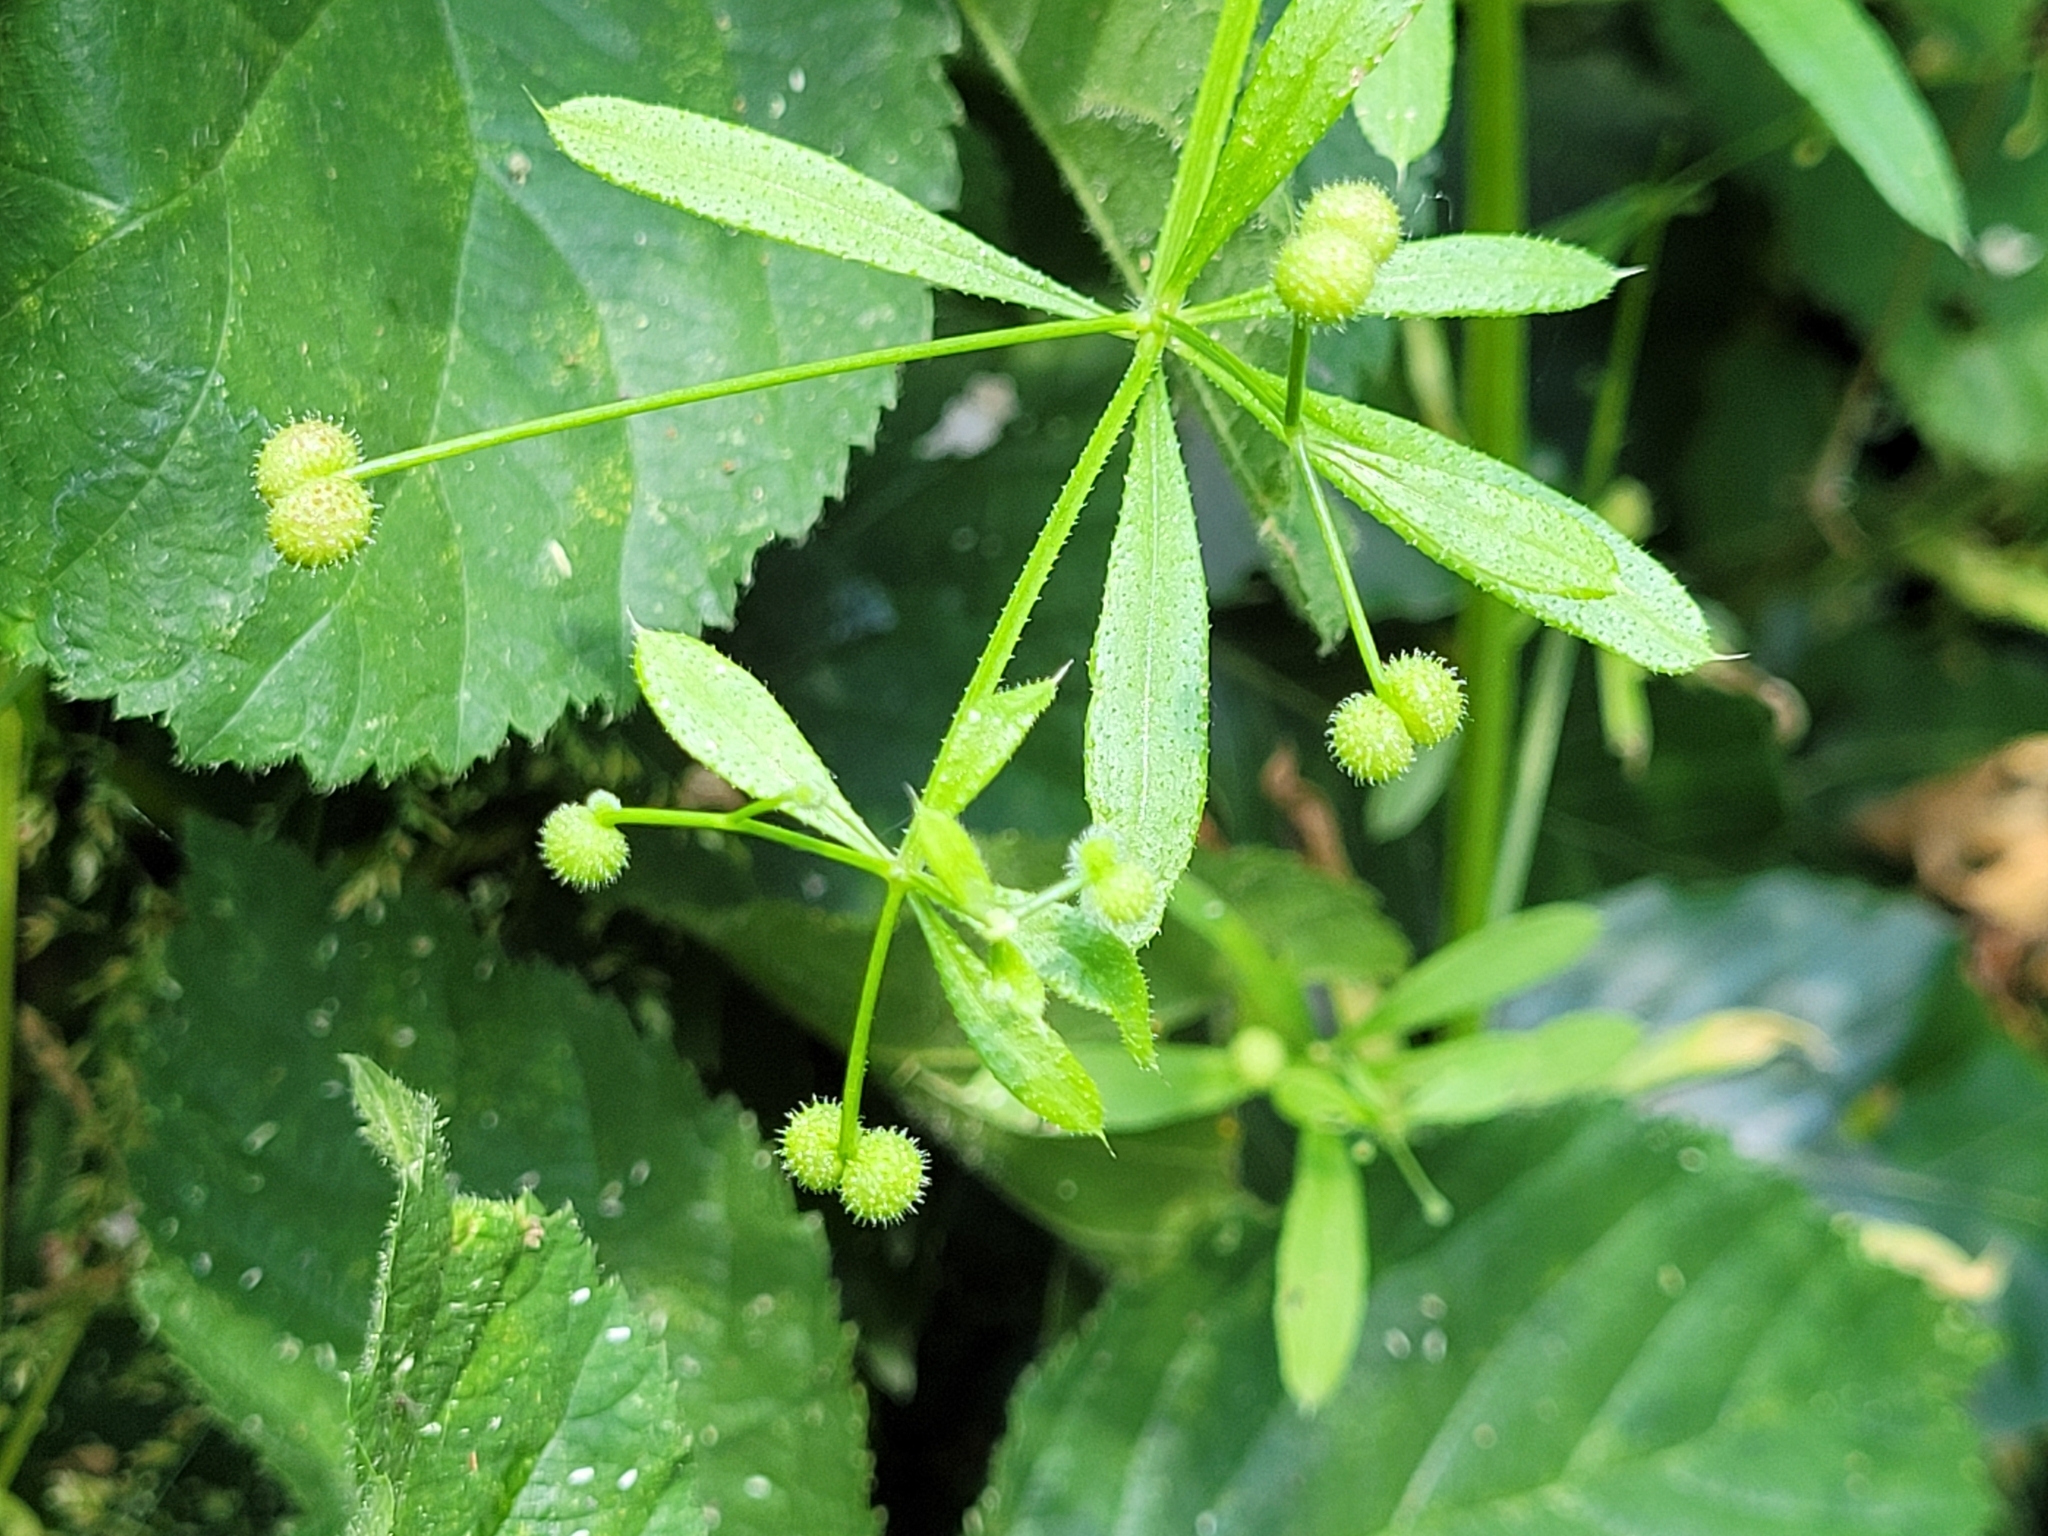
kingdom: Plantae
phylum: Tracheophyta
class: Magnoliopsida
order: Gentianales
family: Rubiaceae
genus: Galium
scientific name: Galium aparine
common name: Cleavers
